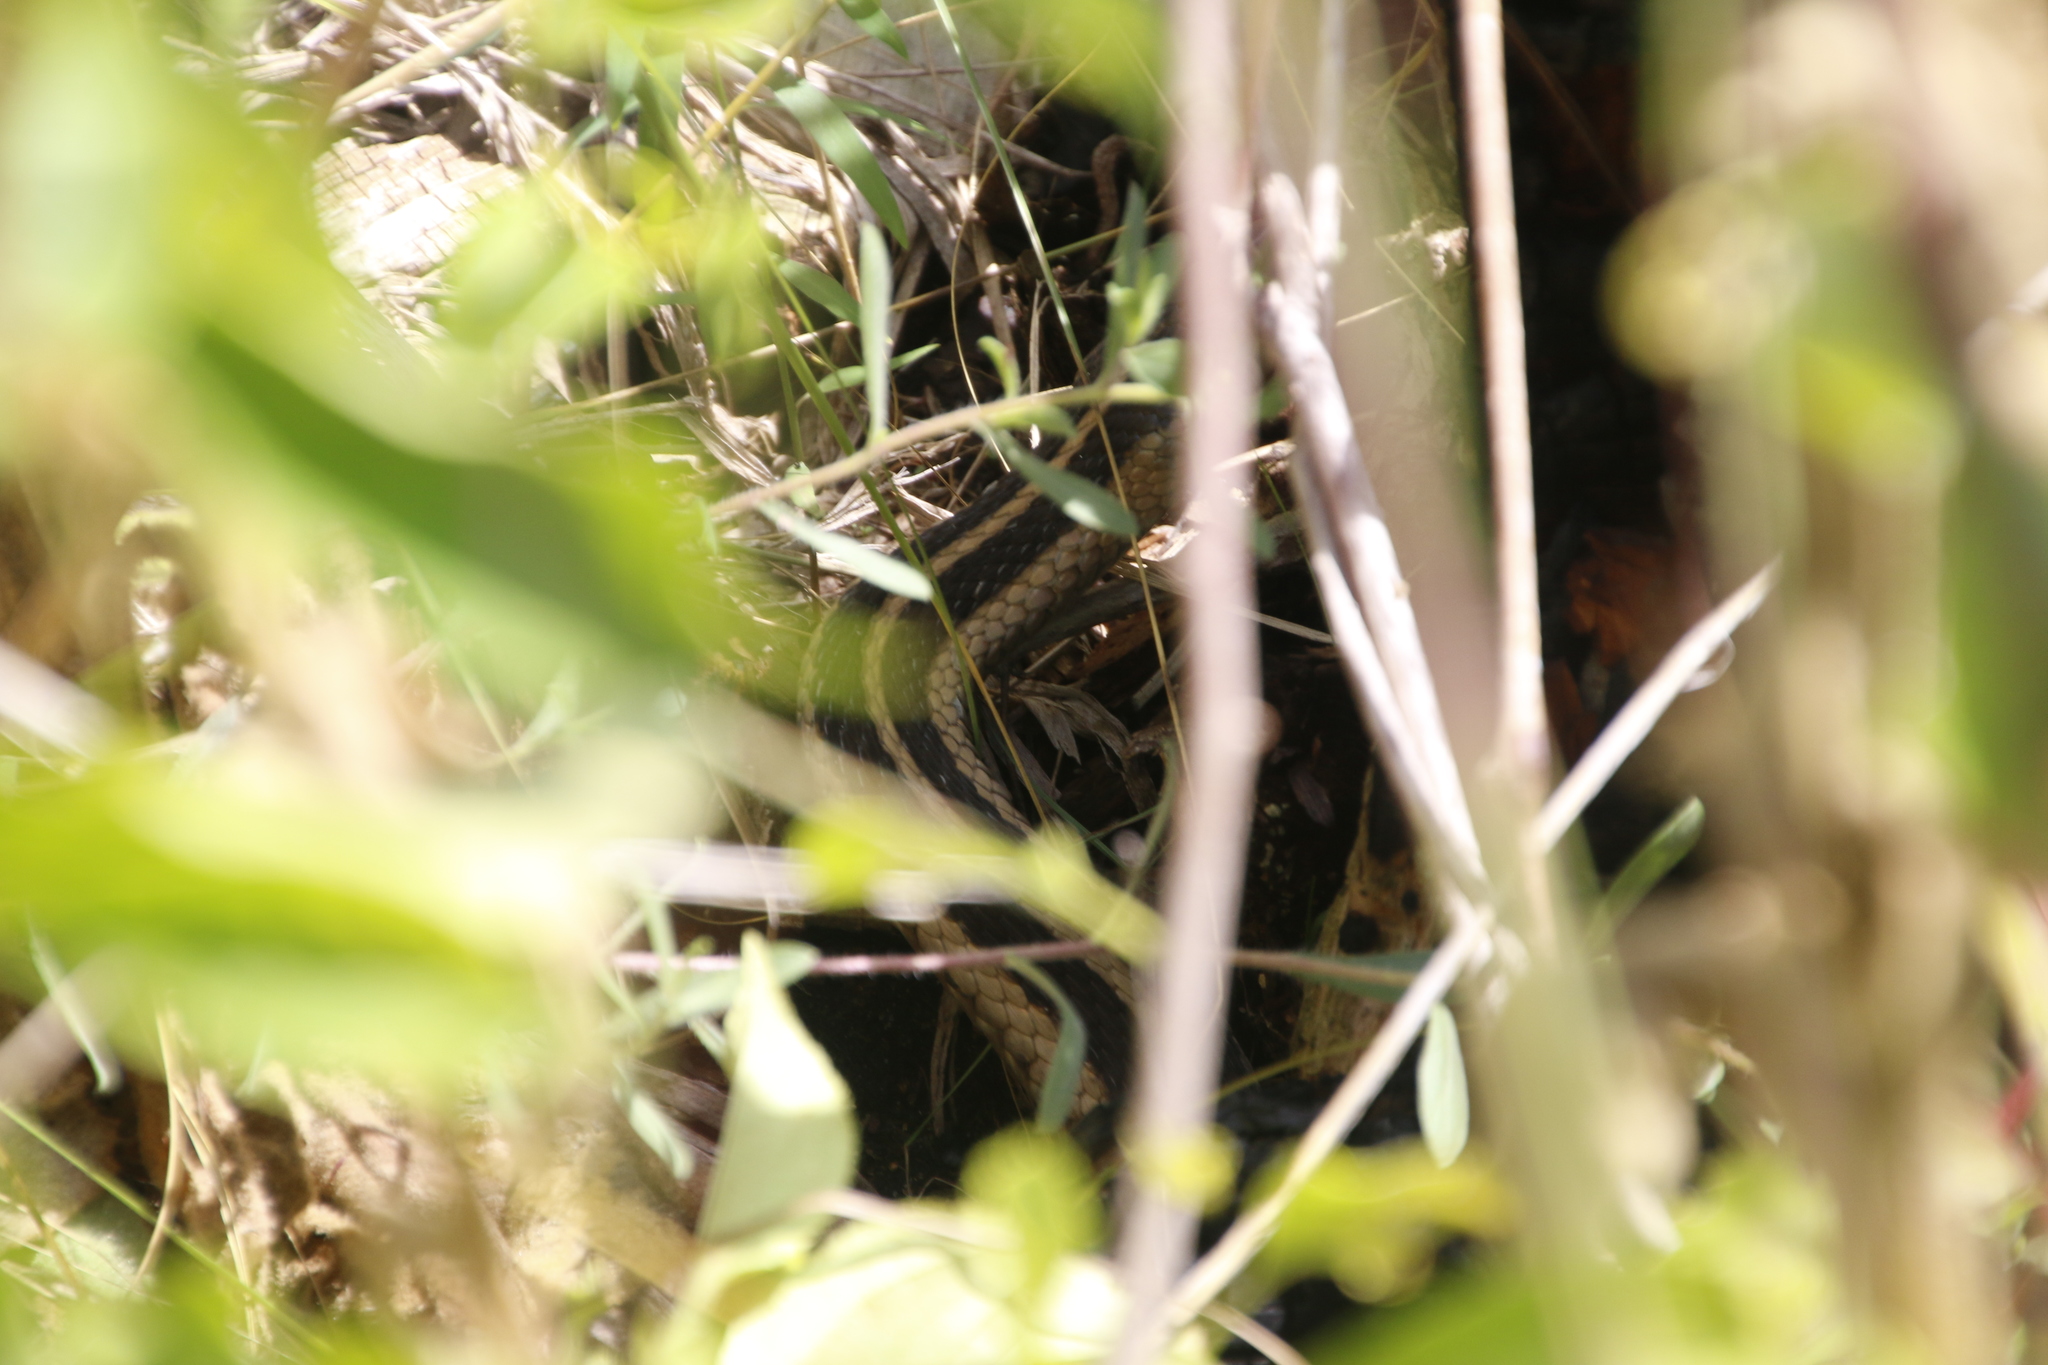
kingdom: Animalia
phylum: Chordata
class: Squamata
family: Colubridae
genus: Thamnophis
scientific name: Thamnophis sirtalis
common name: Common garter snake
